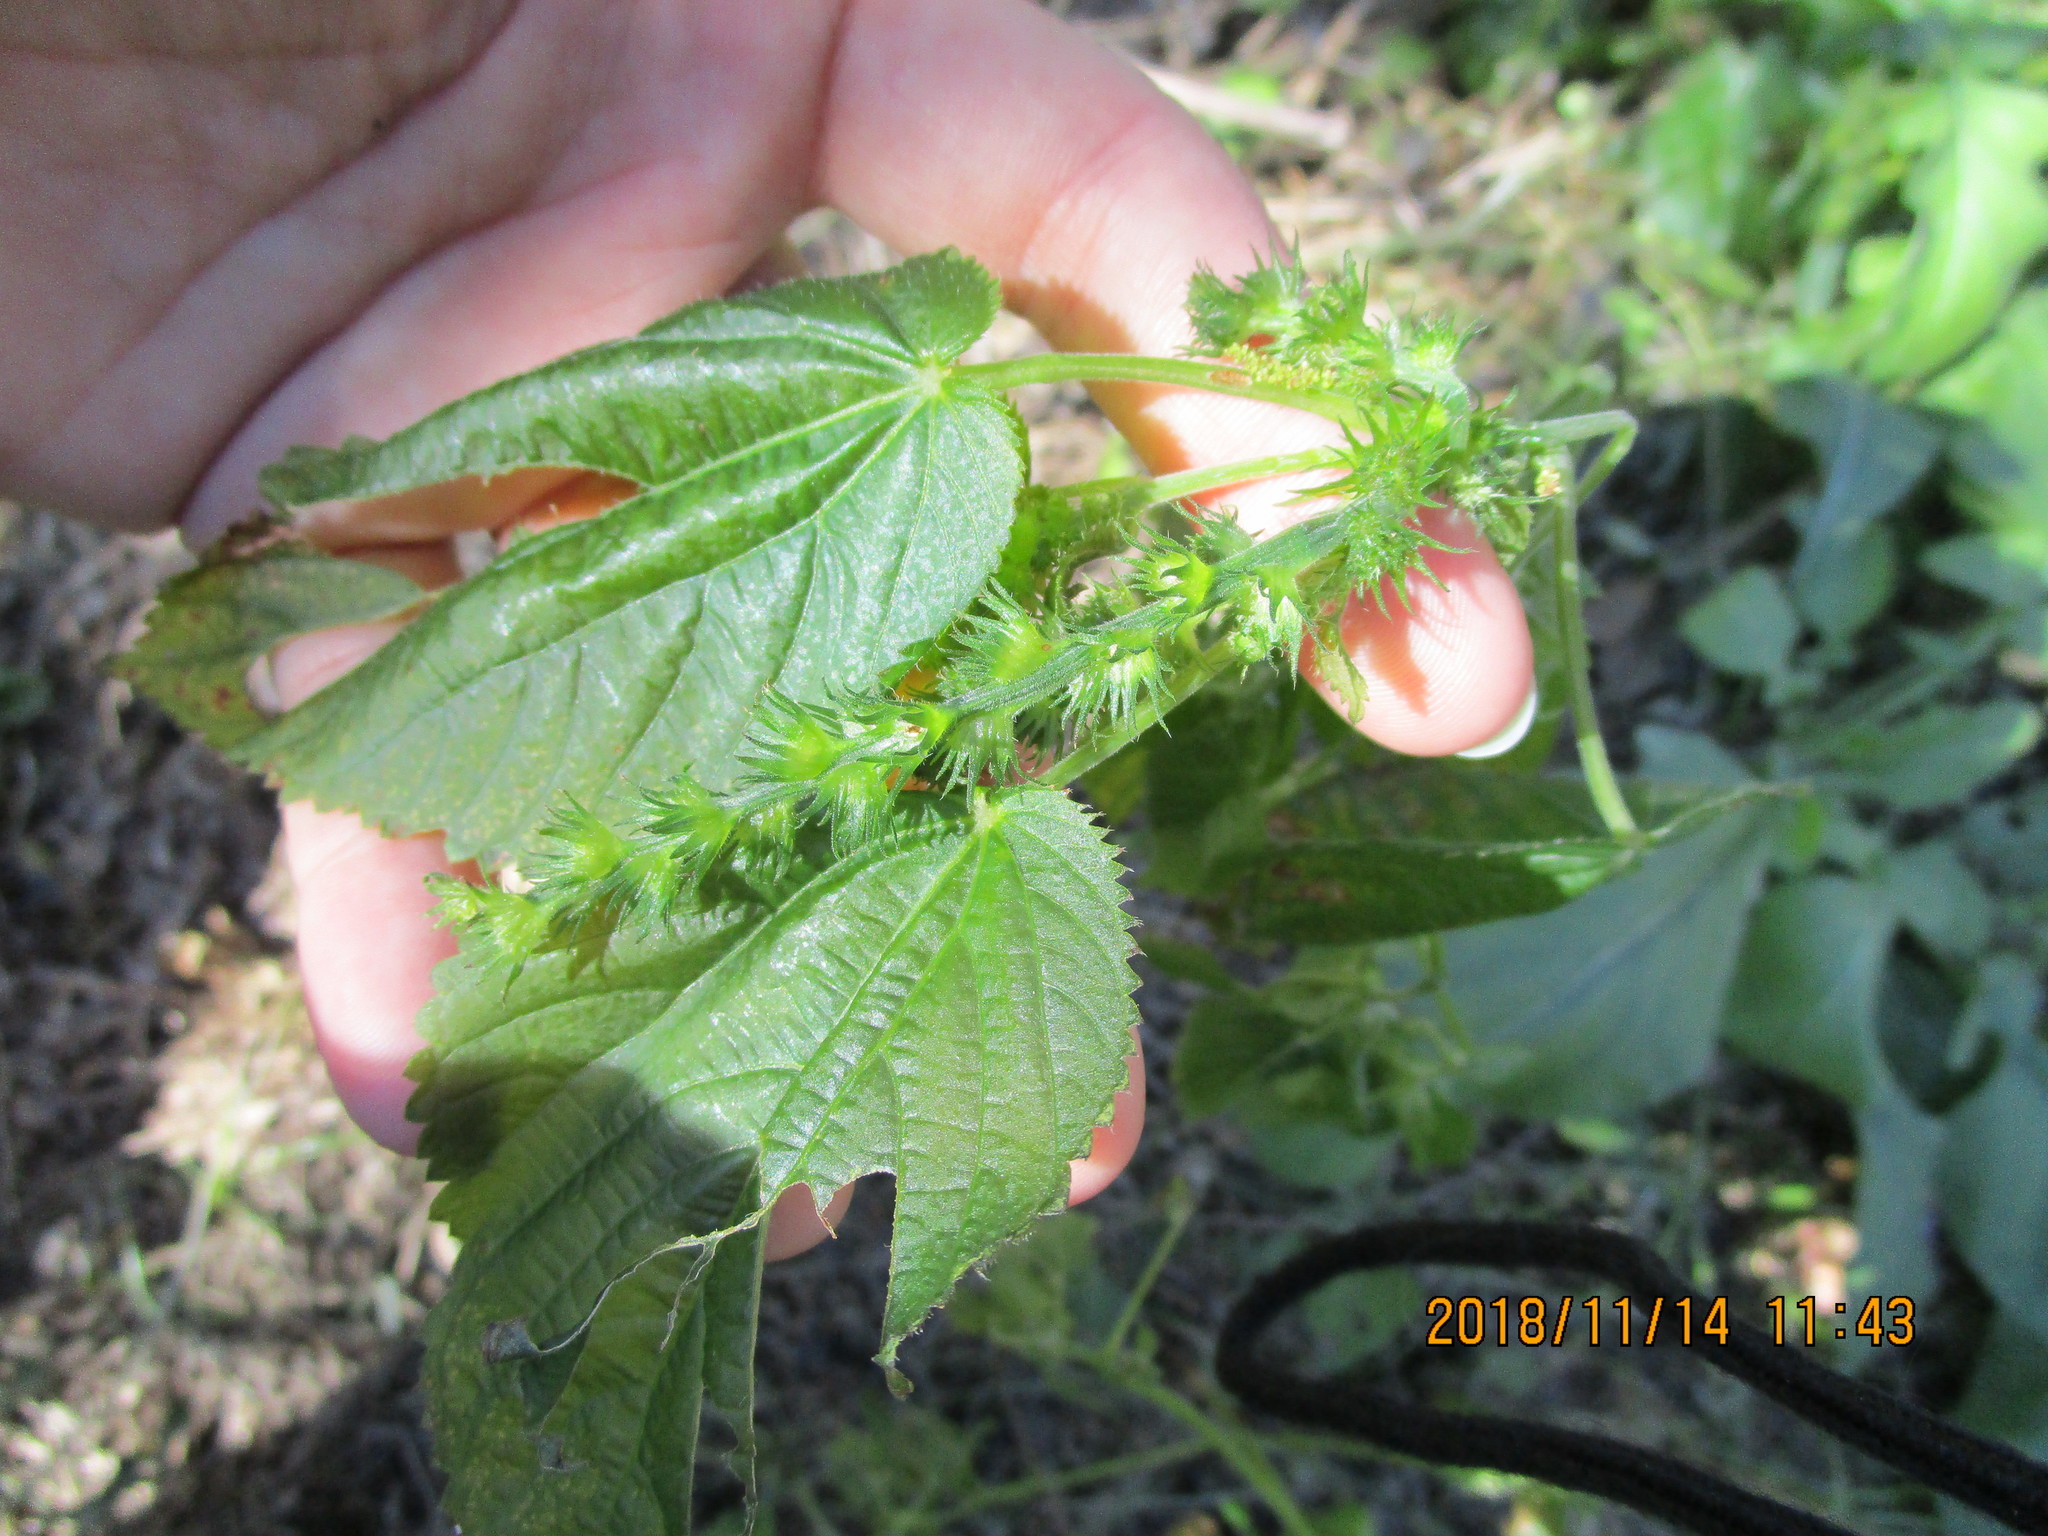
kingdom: Plantae
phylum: Tracheophyta
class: Magnoliopsida
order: Malpighiales
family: Euphorbiaceae
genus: Acalypha
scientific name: Acalypha ostryifolia
